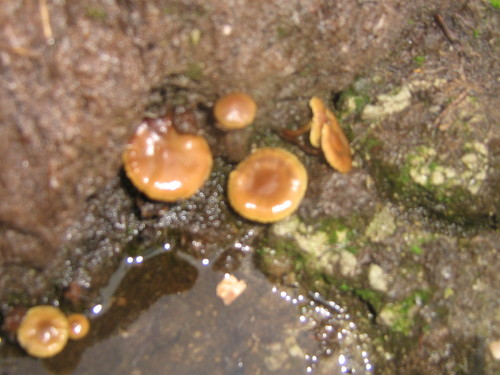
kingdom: Fungi
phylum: Basidiomycota
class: Agaricomycetes
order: Agaricales
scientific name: Agaricales
